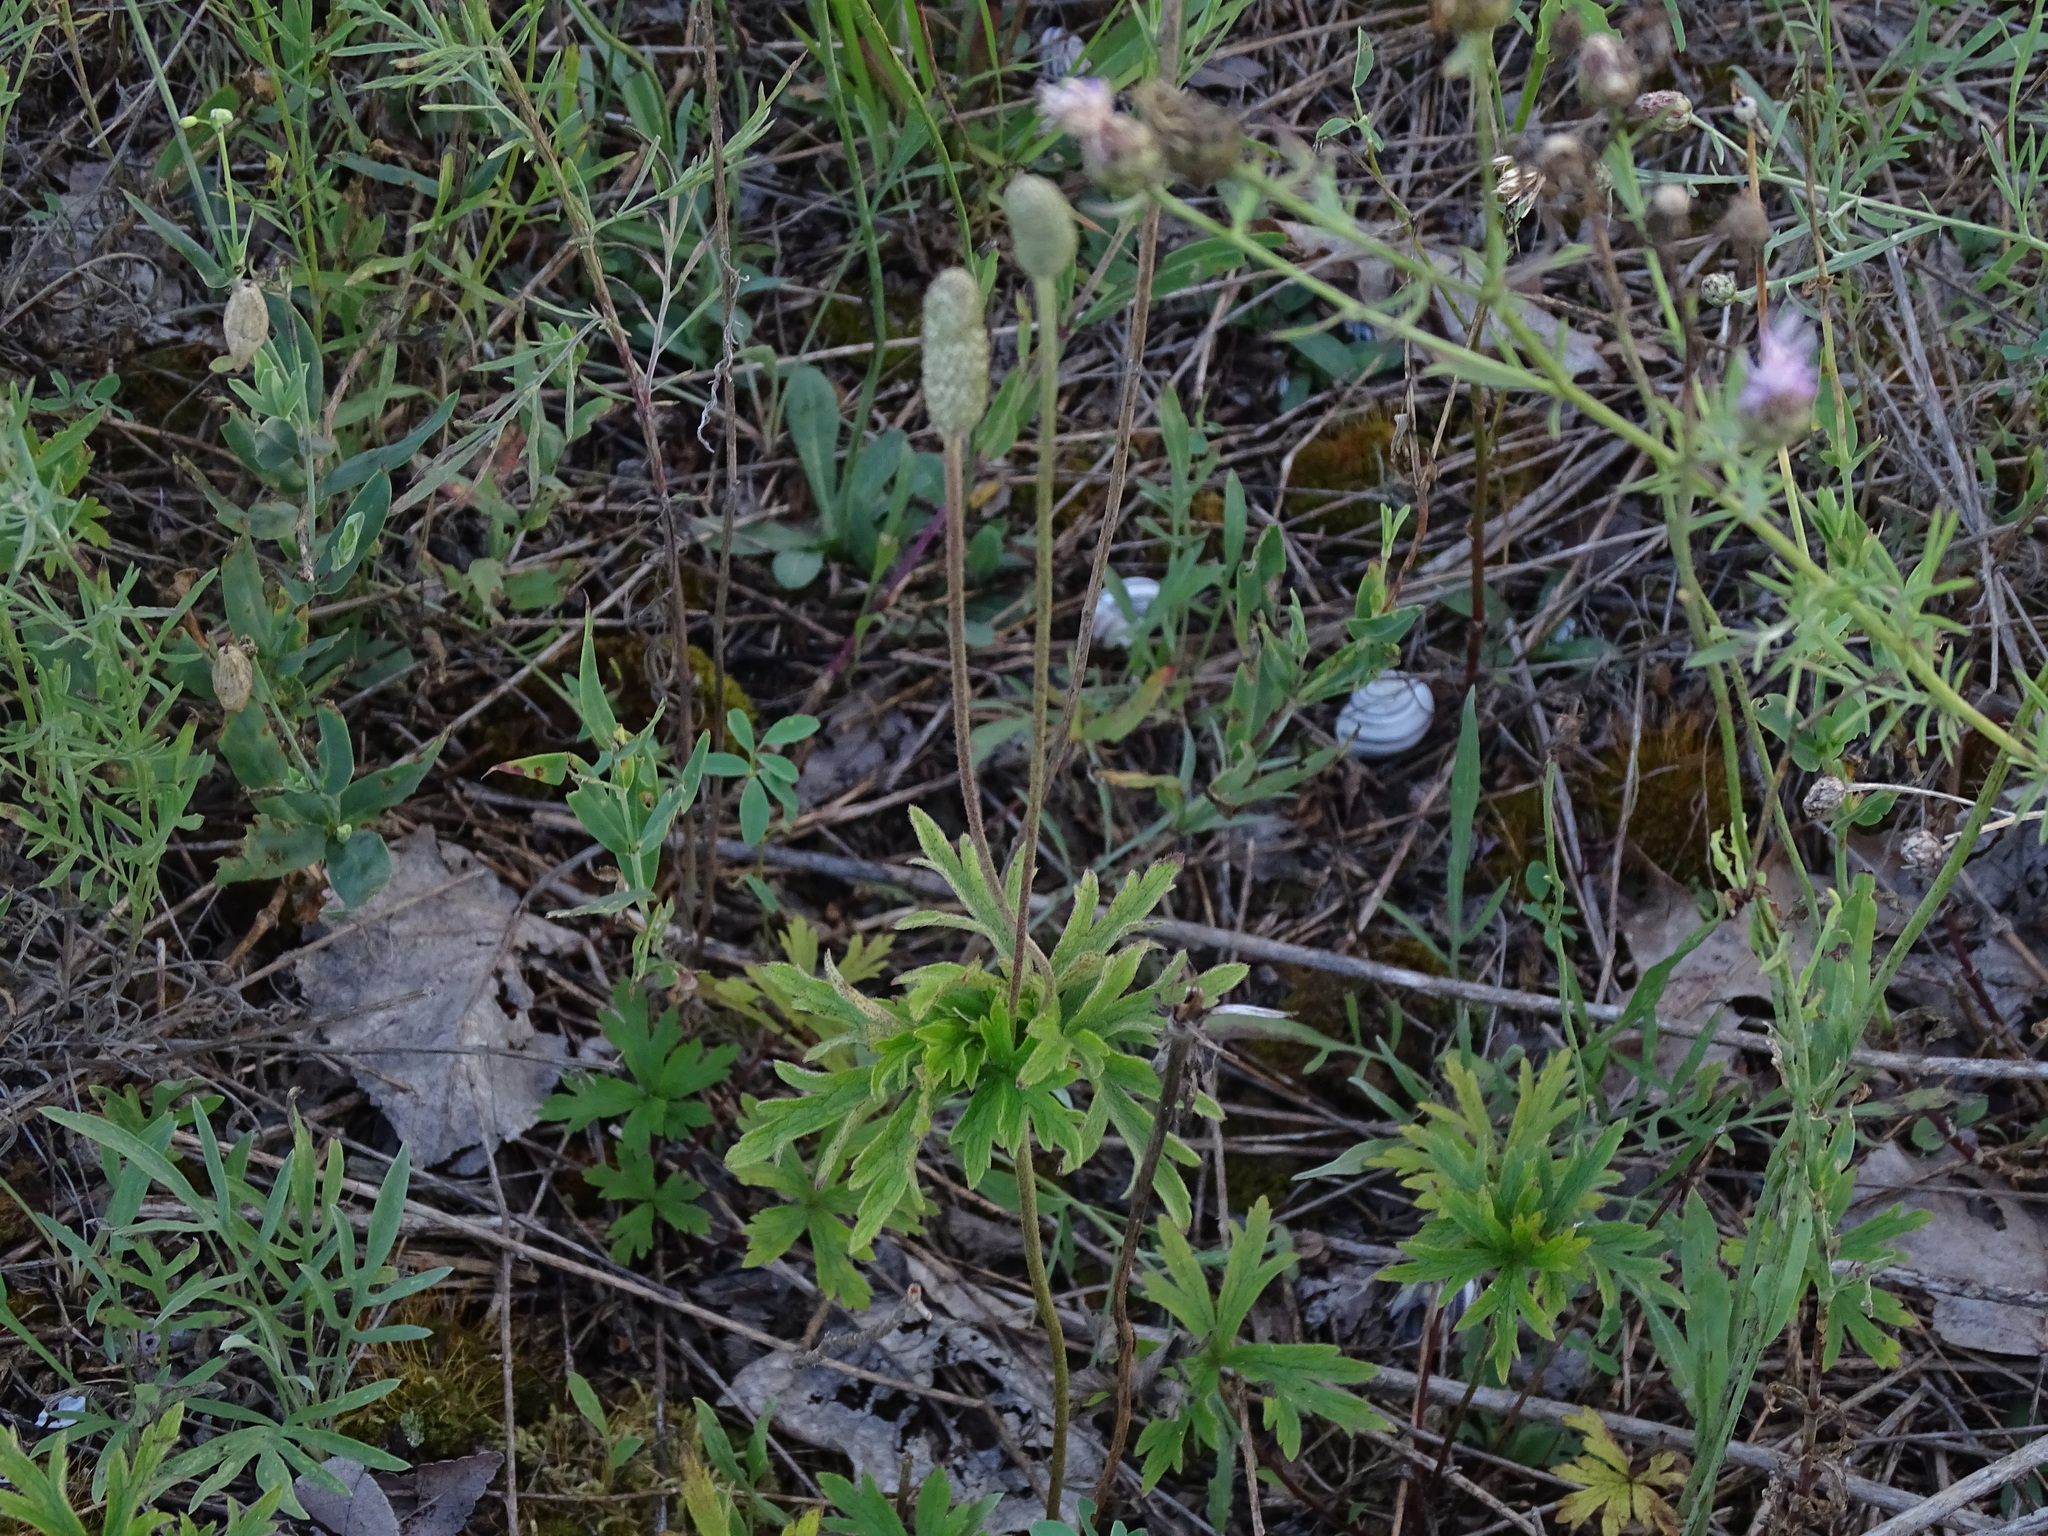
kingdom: Plantae
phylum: Tracheophyta
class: Magnoliopsida
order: Ranunculales
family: Ranunculaceae
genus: Anemone
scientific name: Anemone cylindrica
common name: Candle anemone
